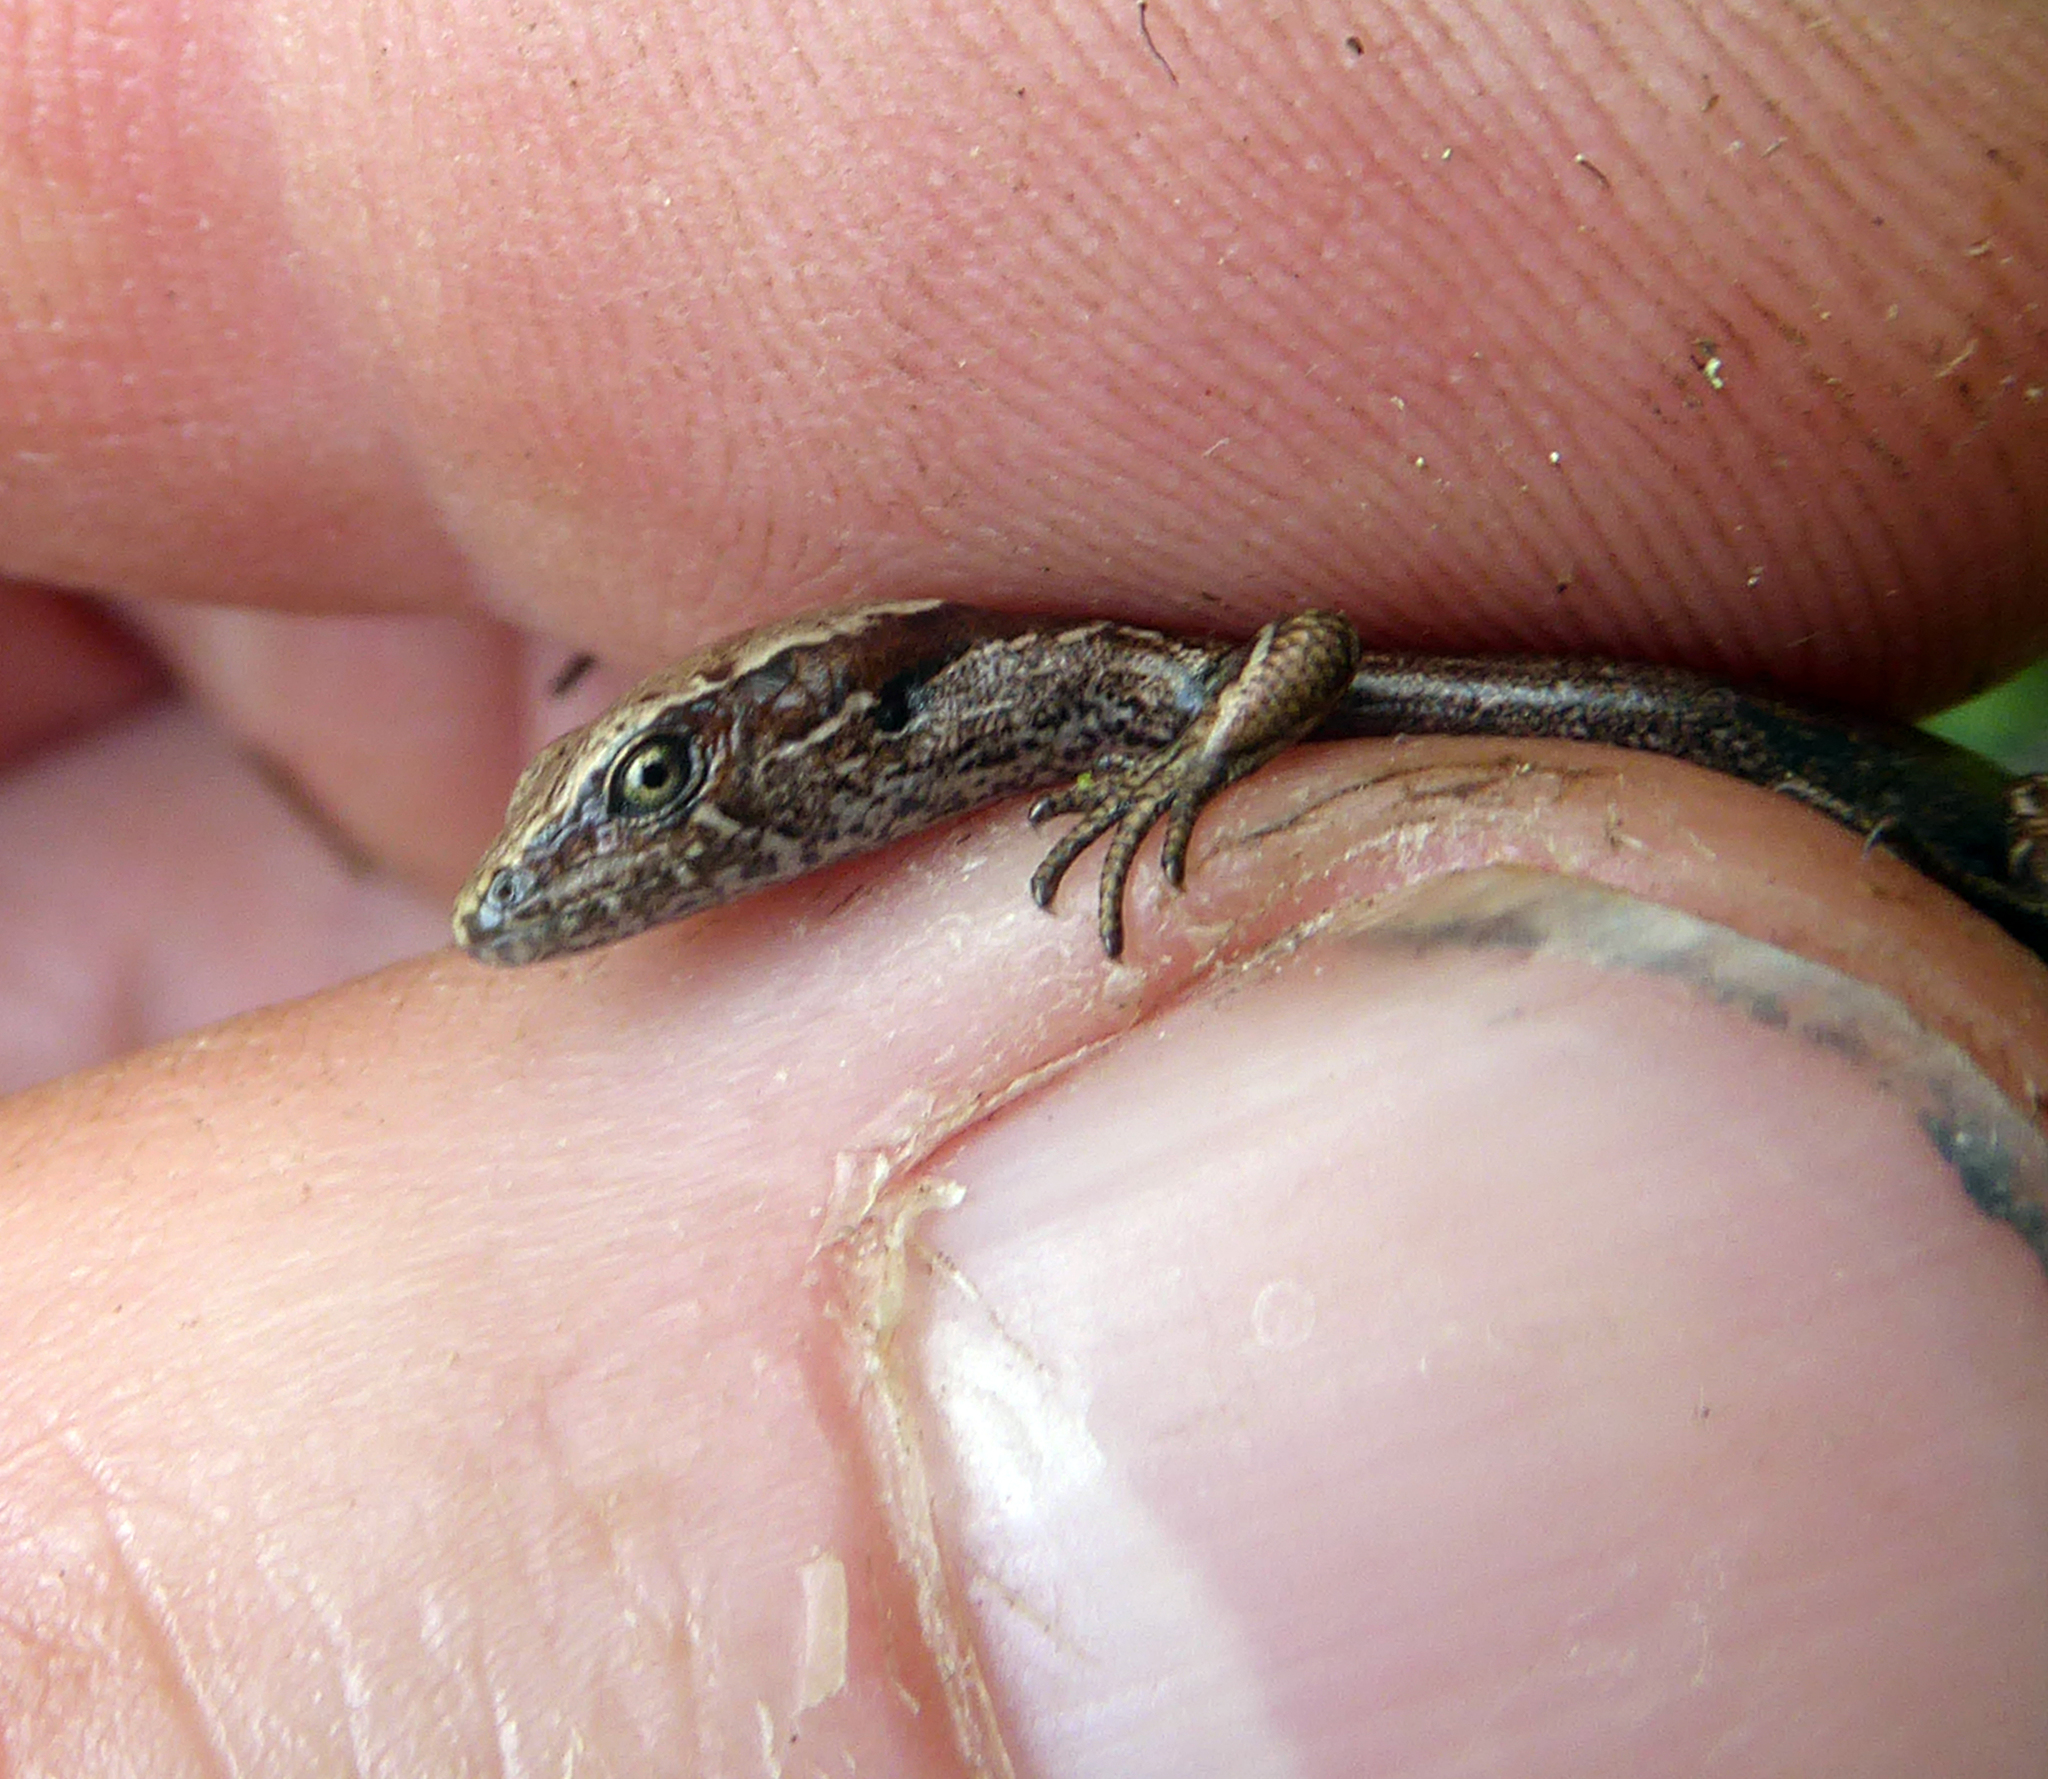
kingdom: Animalia
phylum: Chordata
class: Squamata
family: Scincidae
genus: Oligosoma
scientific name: Oligosoma zelandicum
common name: Brown skink
